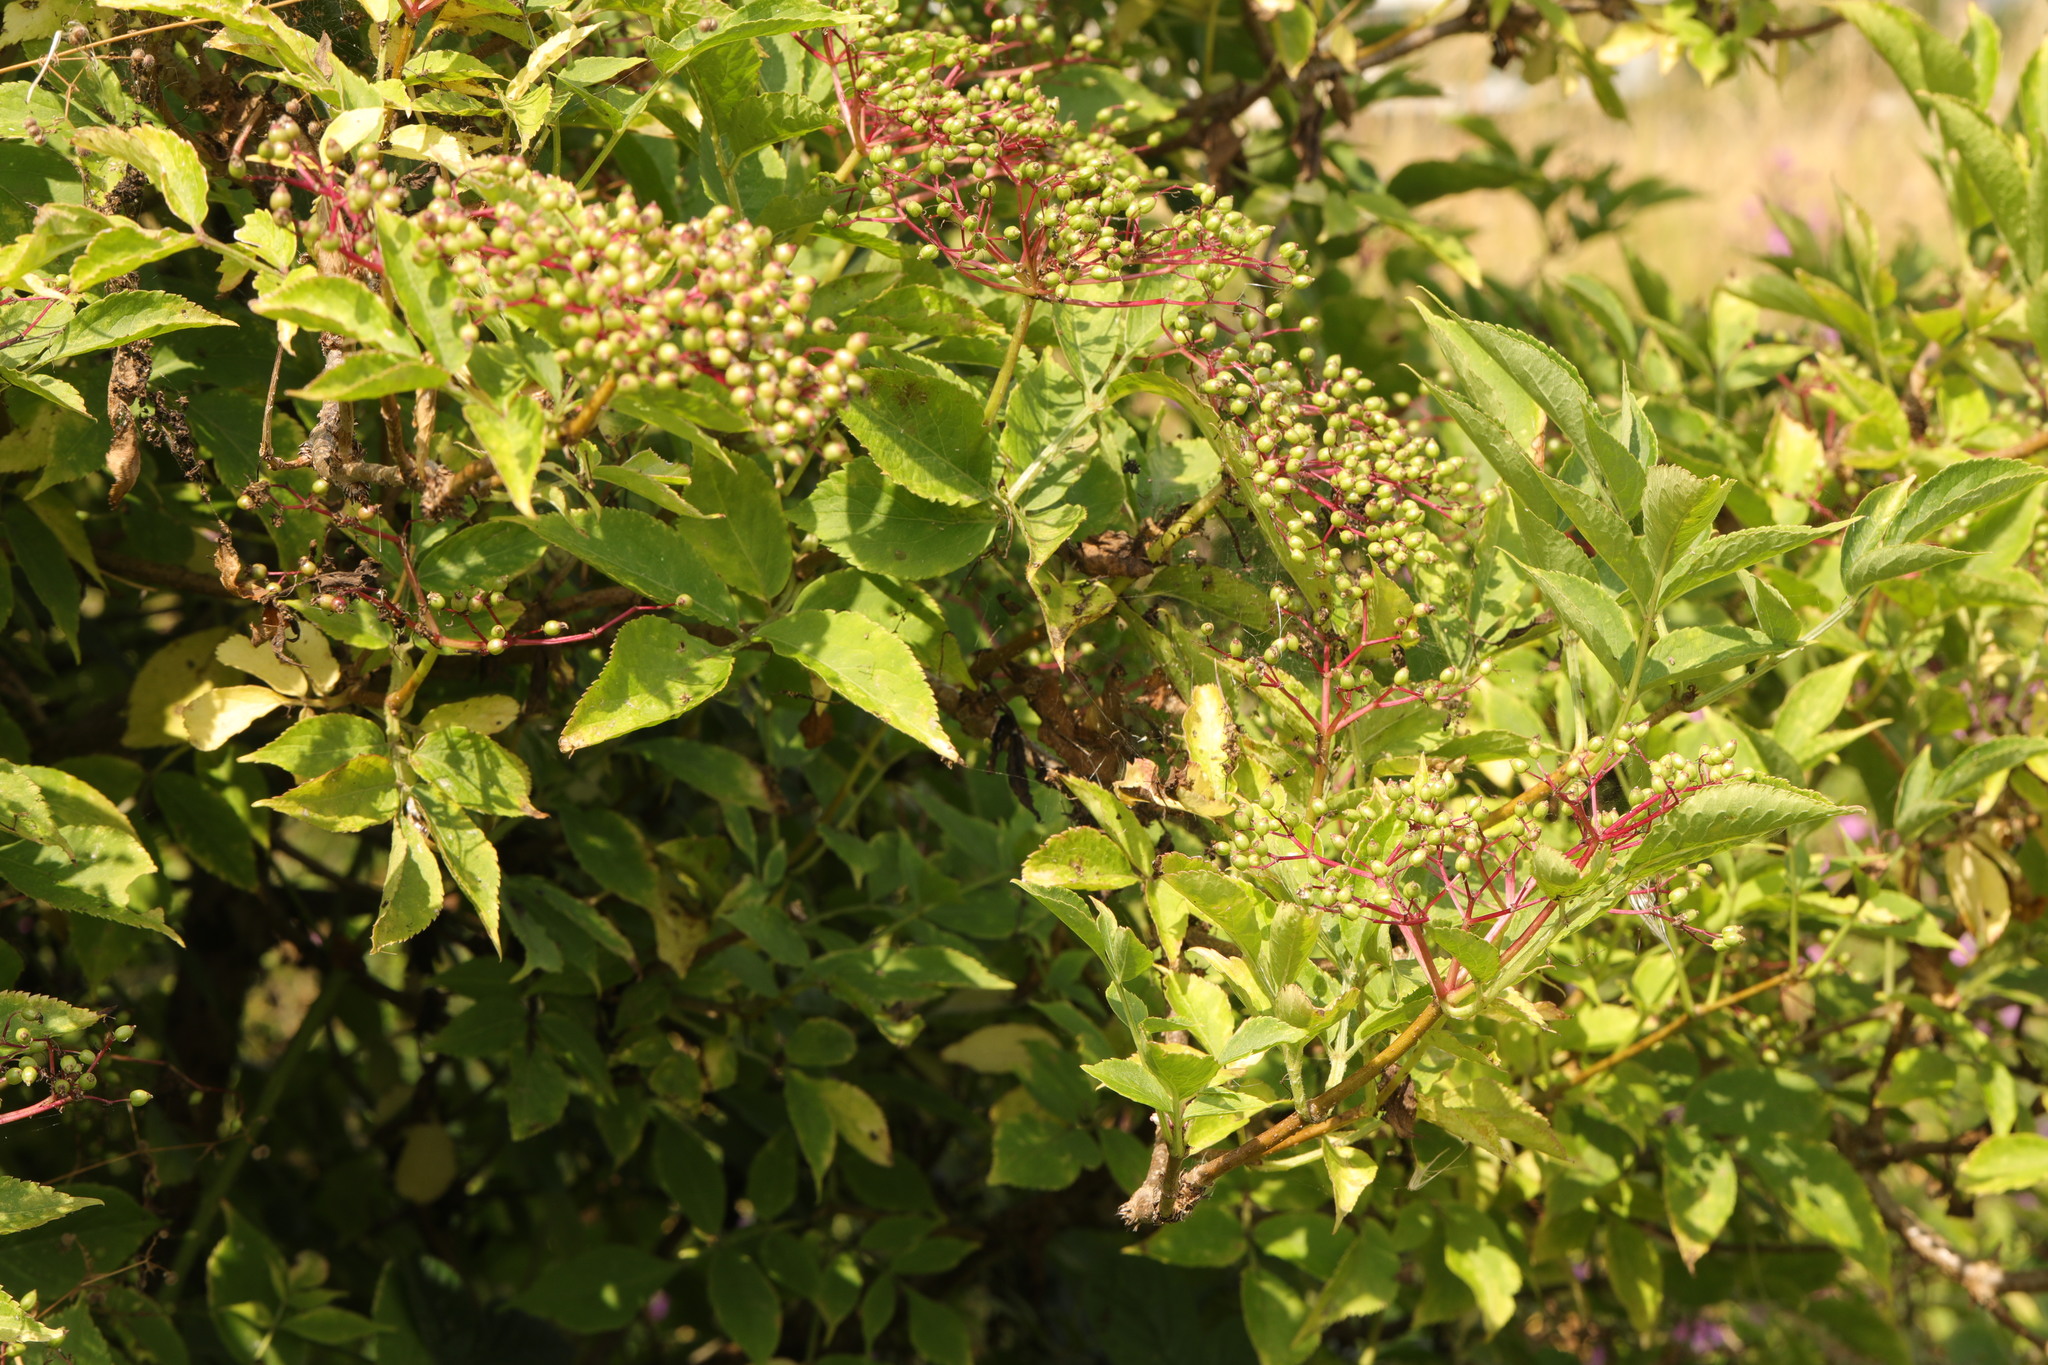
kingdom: Plantae
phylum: Tracheophyta
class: Magnoliopsida
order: Dipsacales
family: Viburnaceae
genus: Sambucus
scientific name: Sambucus nigra
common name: Elder
